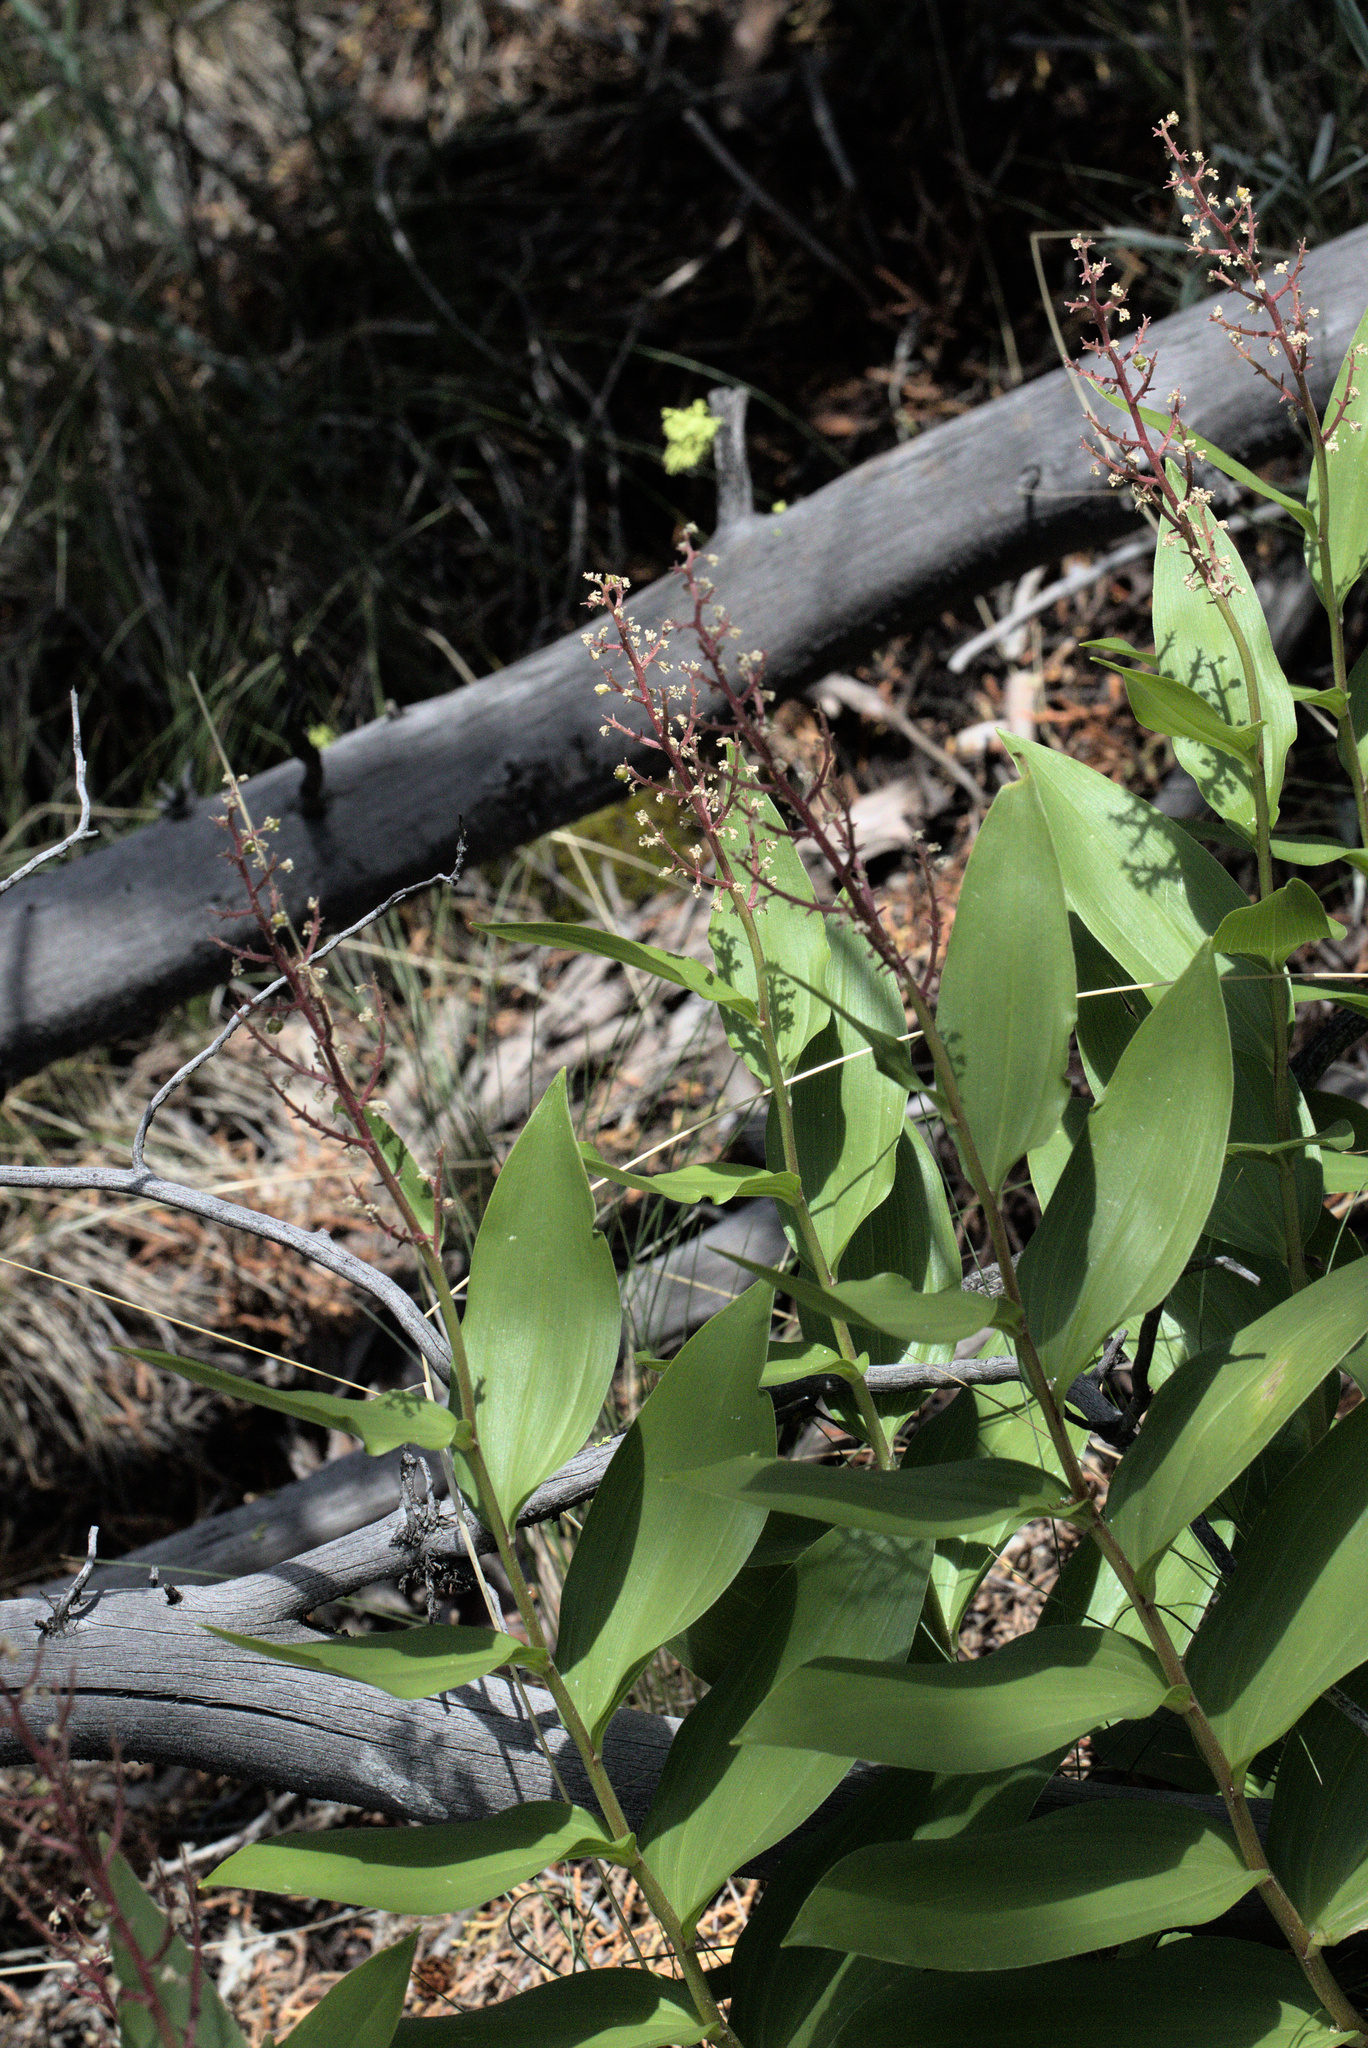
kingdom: Plantae
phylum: Tracheophyta
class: Liliopsida
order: Asparagales
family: Asparagaceae
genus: Maianthemum
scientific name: Maianthemum racemosum
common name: False spikenard
